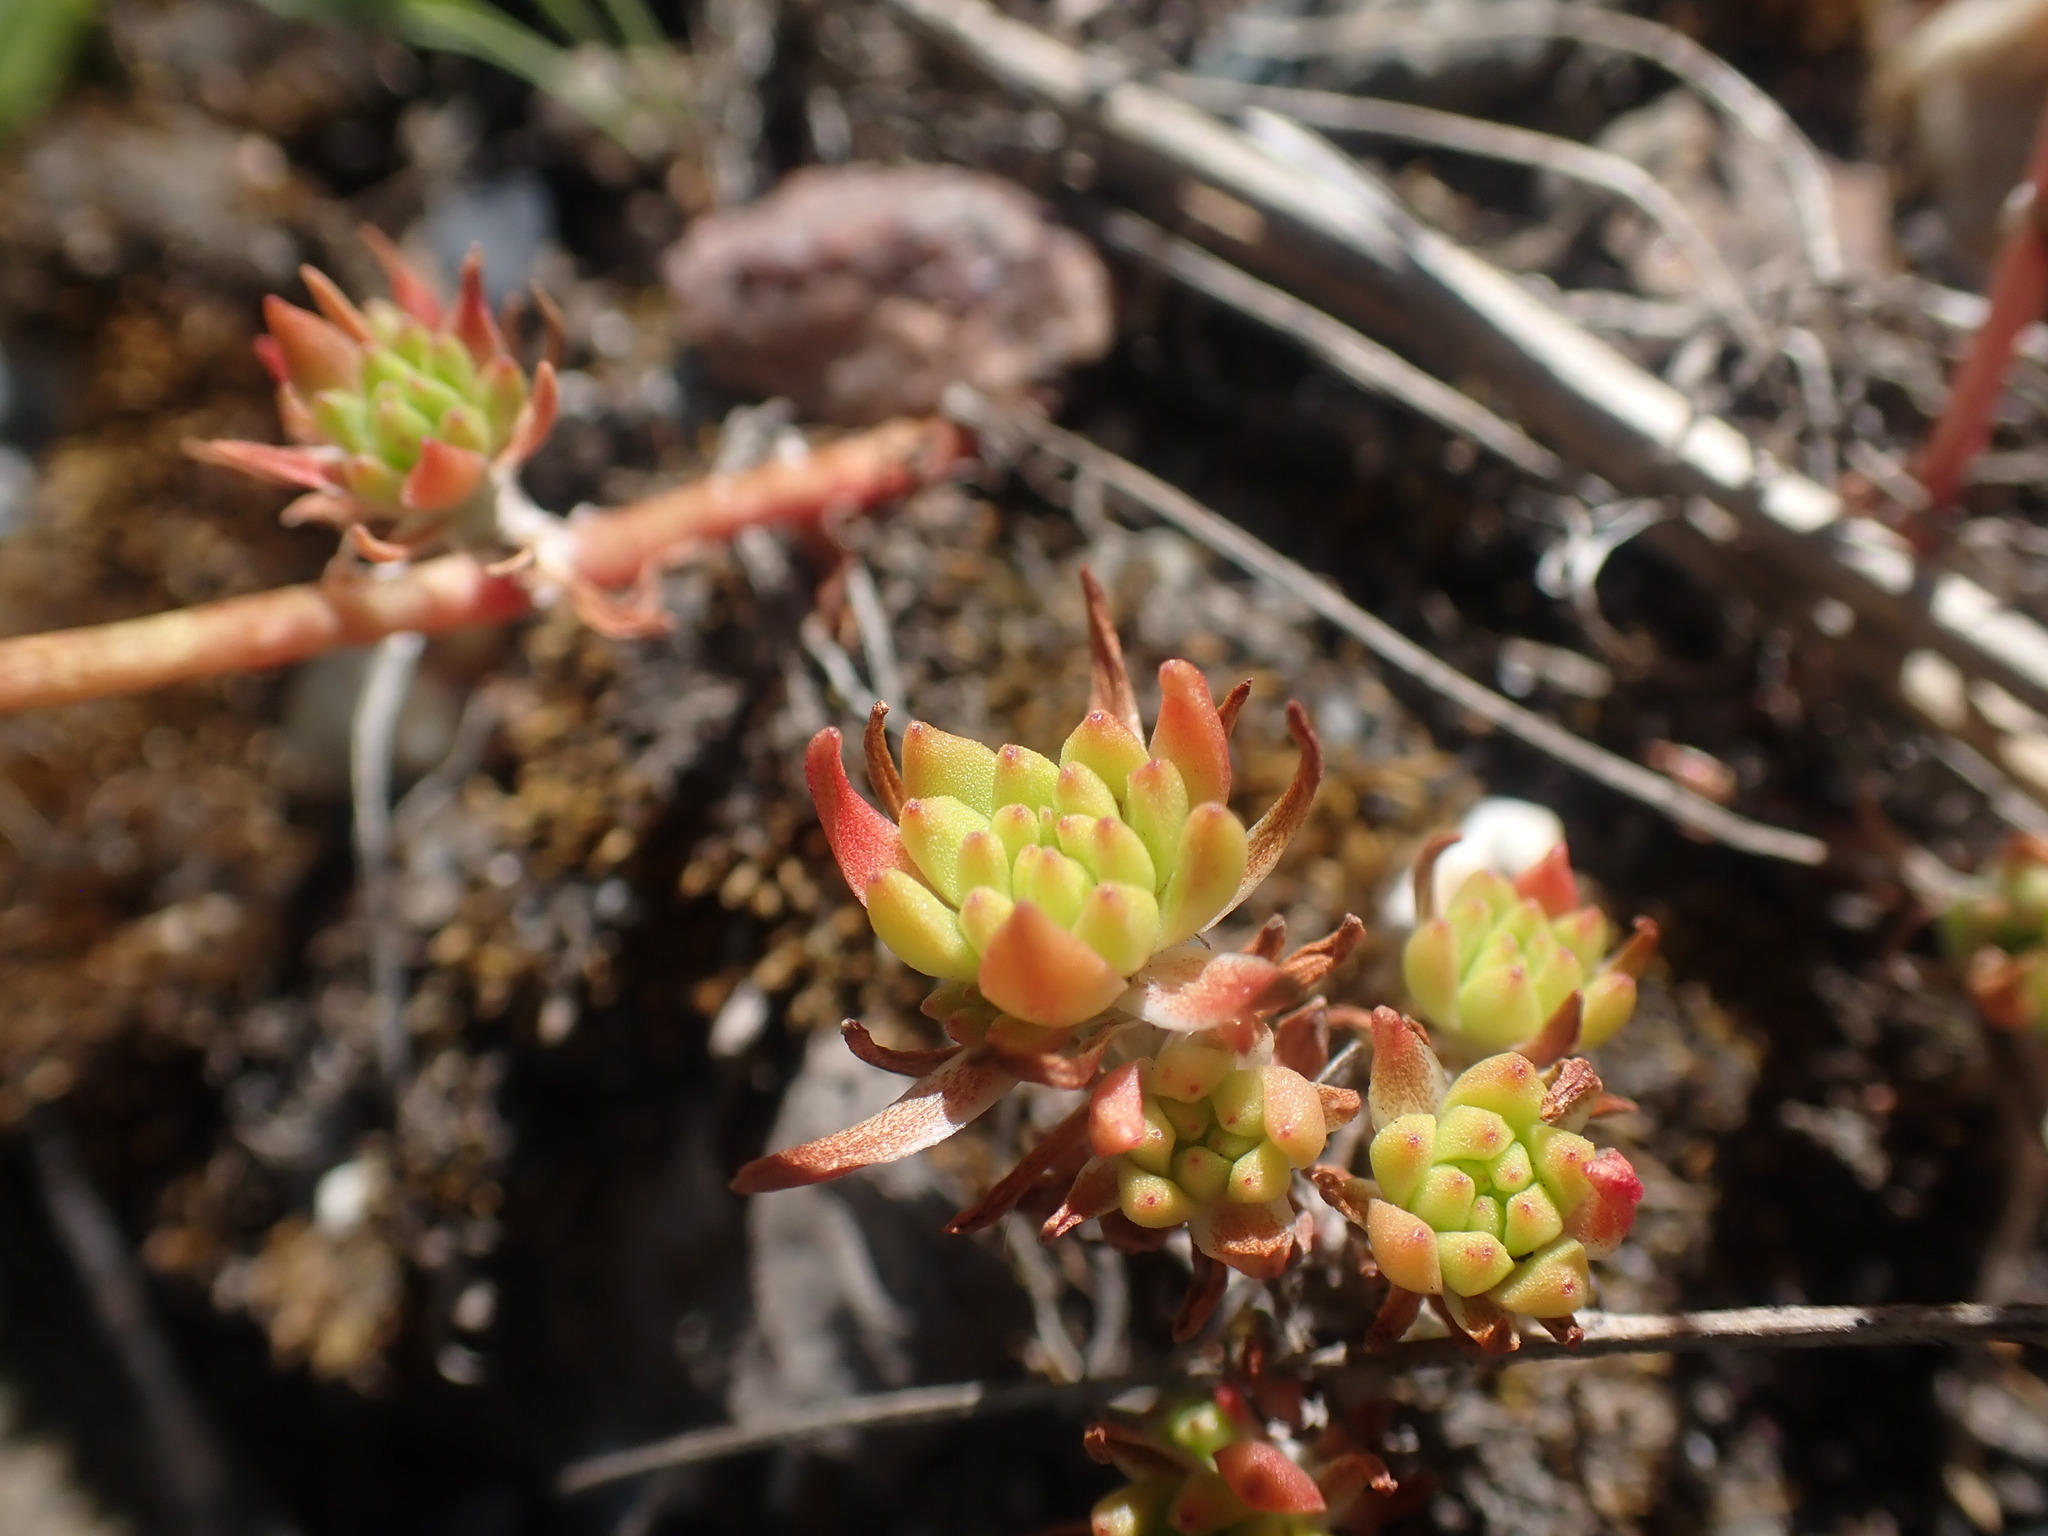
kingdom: Plantae
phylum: Tracheophyta
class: Magnoliopsida
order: Saxifragales
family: Crassulaceae
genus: Sedum
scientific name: Sedum stenopetalum
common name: Narrow-petaled stonecrop
